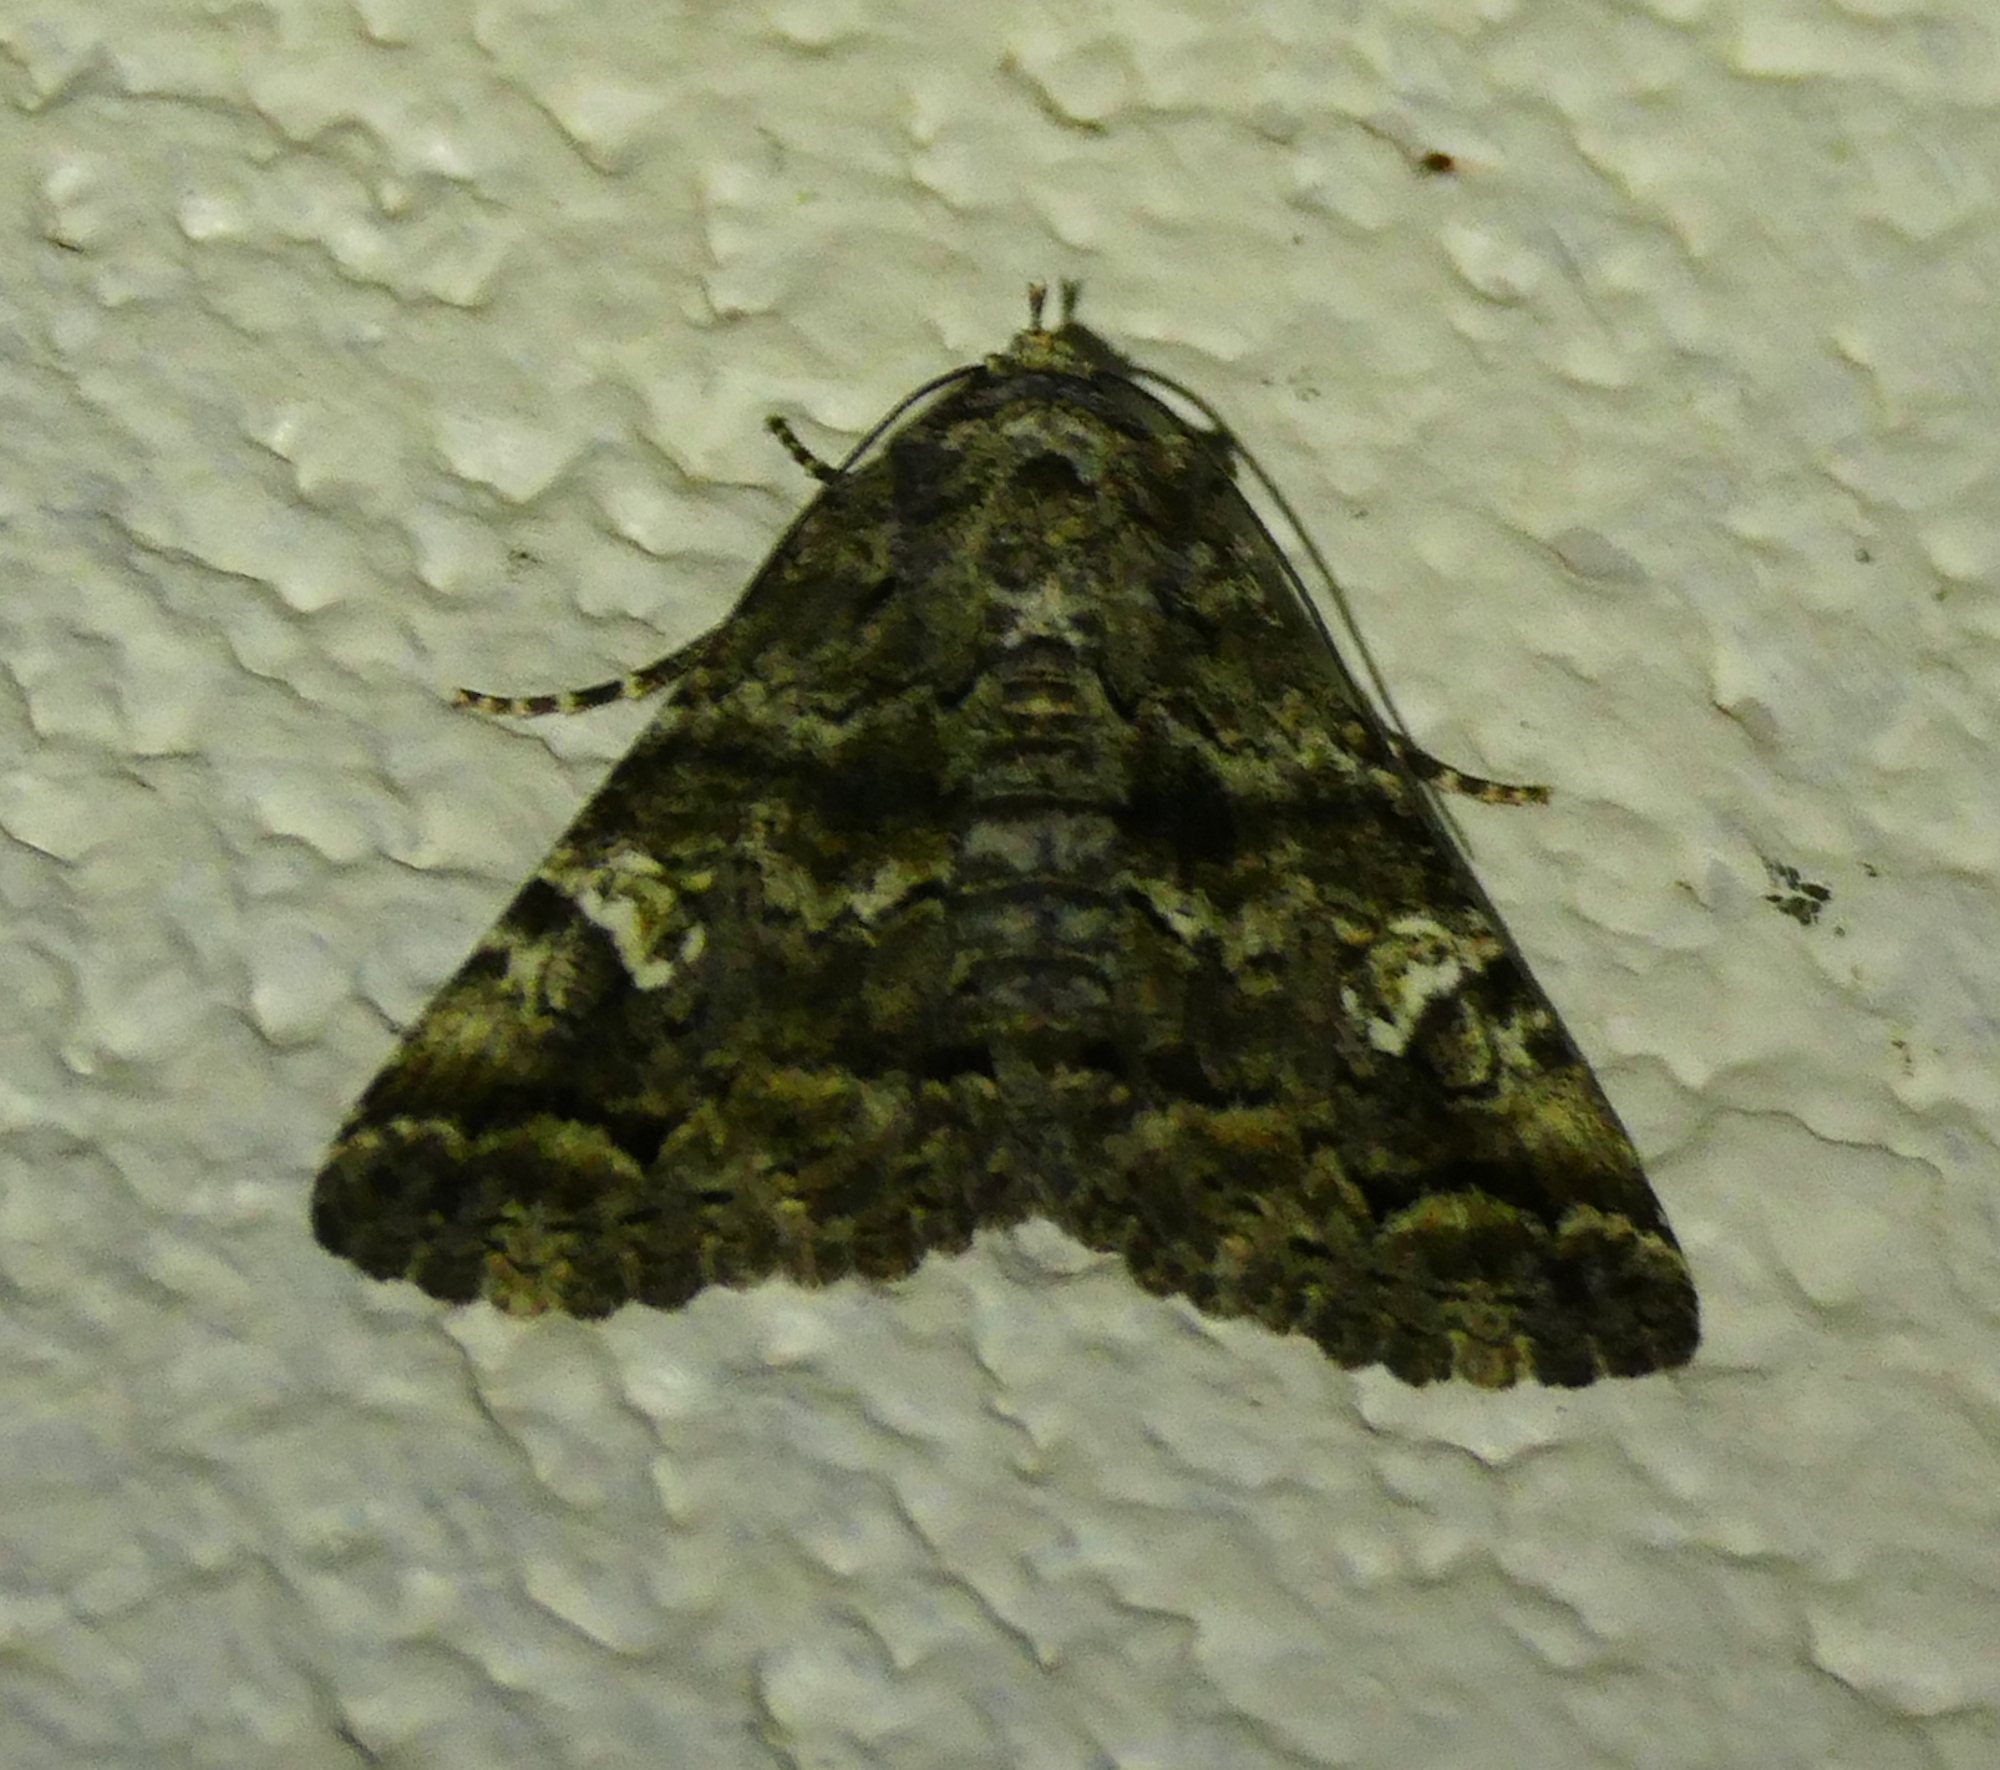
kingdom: Animalia
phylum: Arthropoda
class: Insecta
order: Lepidoptera
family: Erebidae
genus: Metria
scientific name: Metria amella
